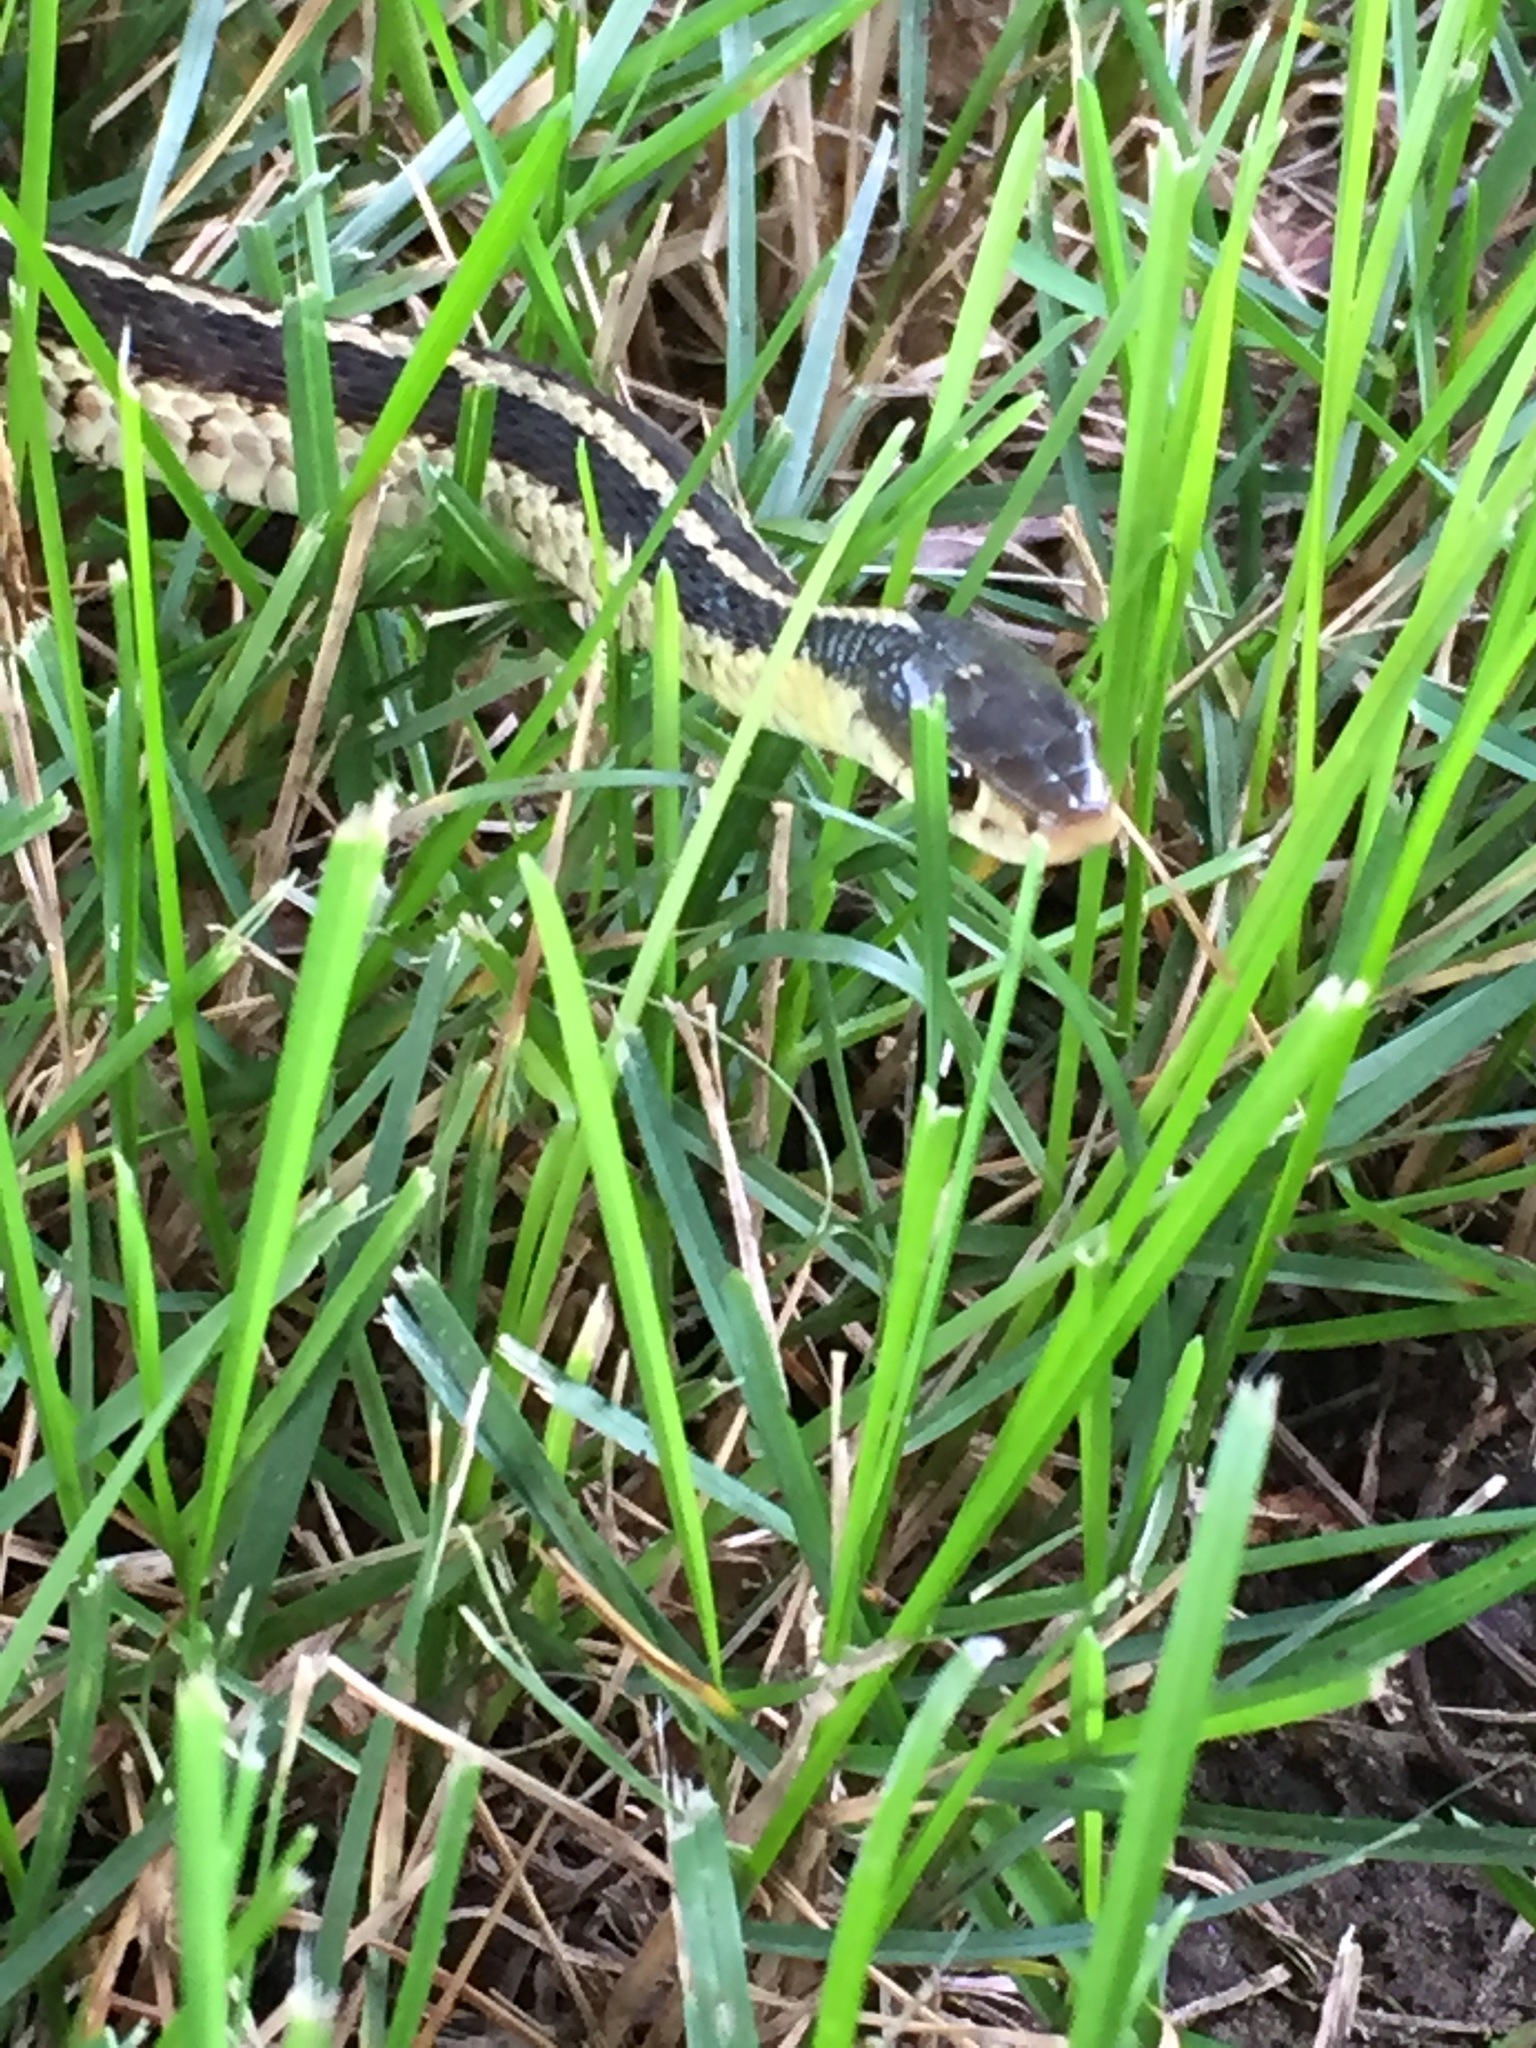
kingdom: Animalia
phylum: Chordata
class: Squamata
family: Colubridae
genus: Thamnophis
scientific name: Thamnophis sirtalis
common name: Common garter snake
